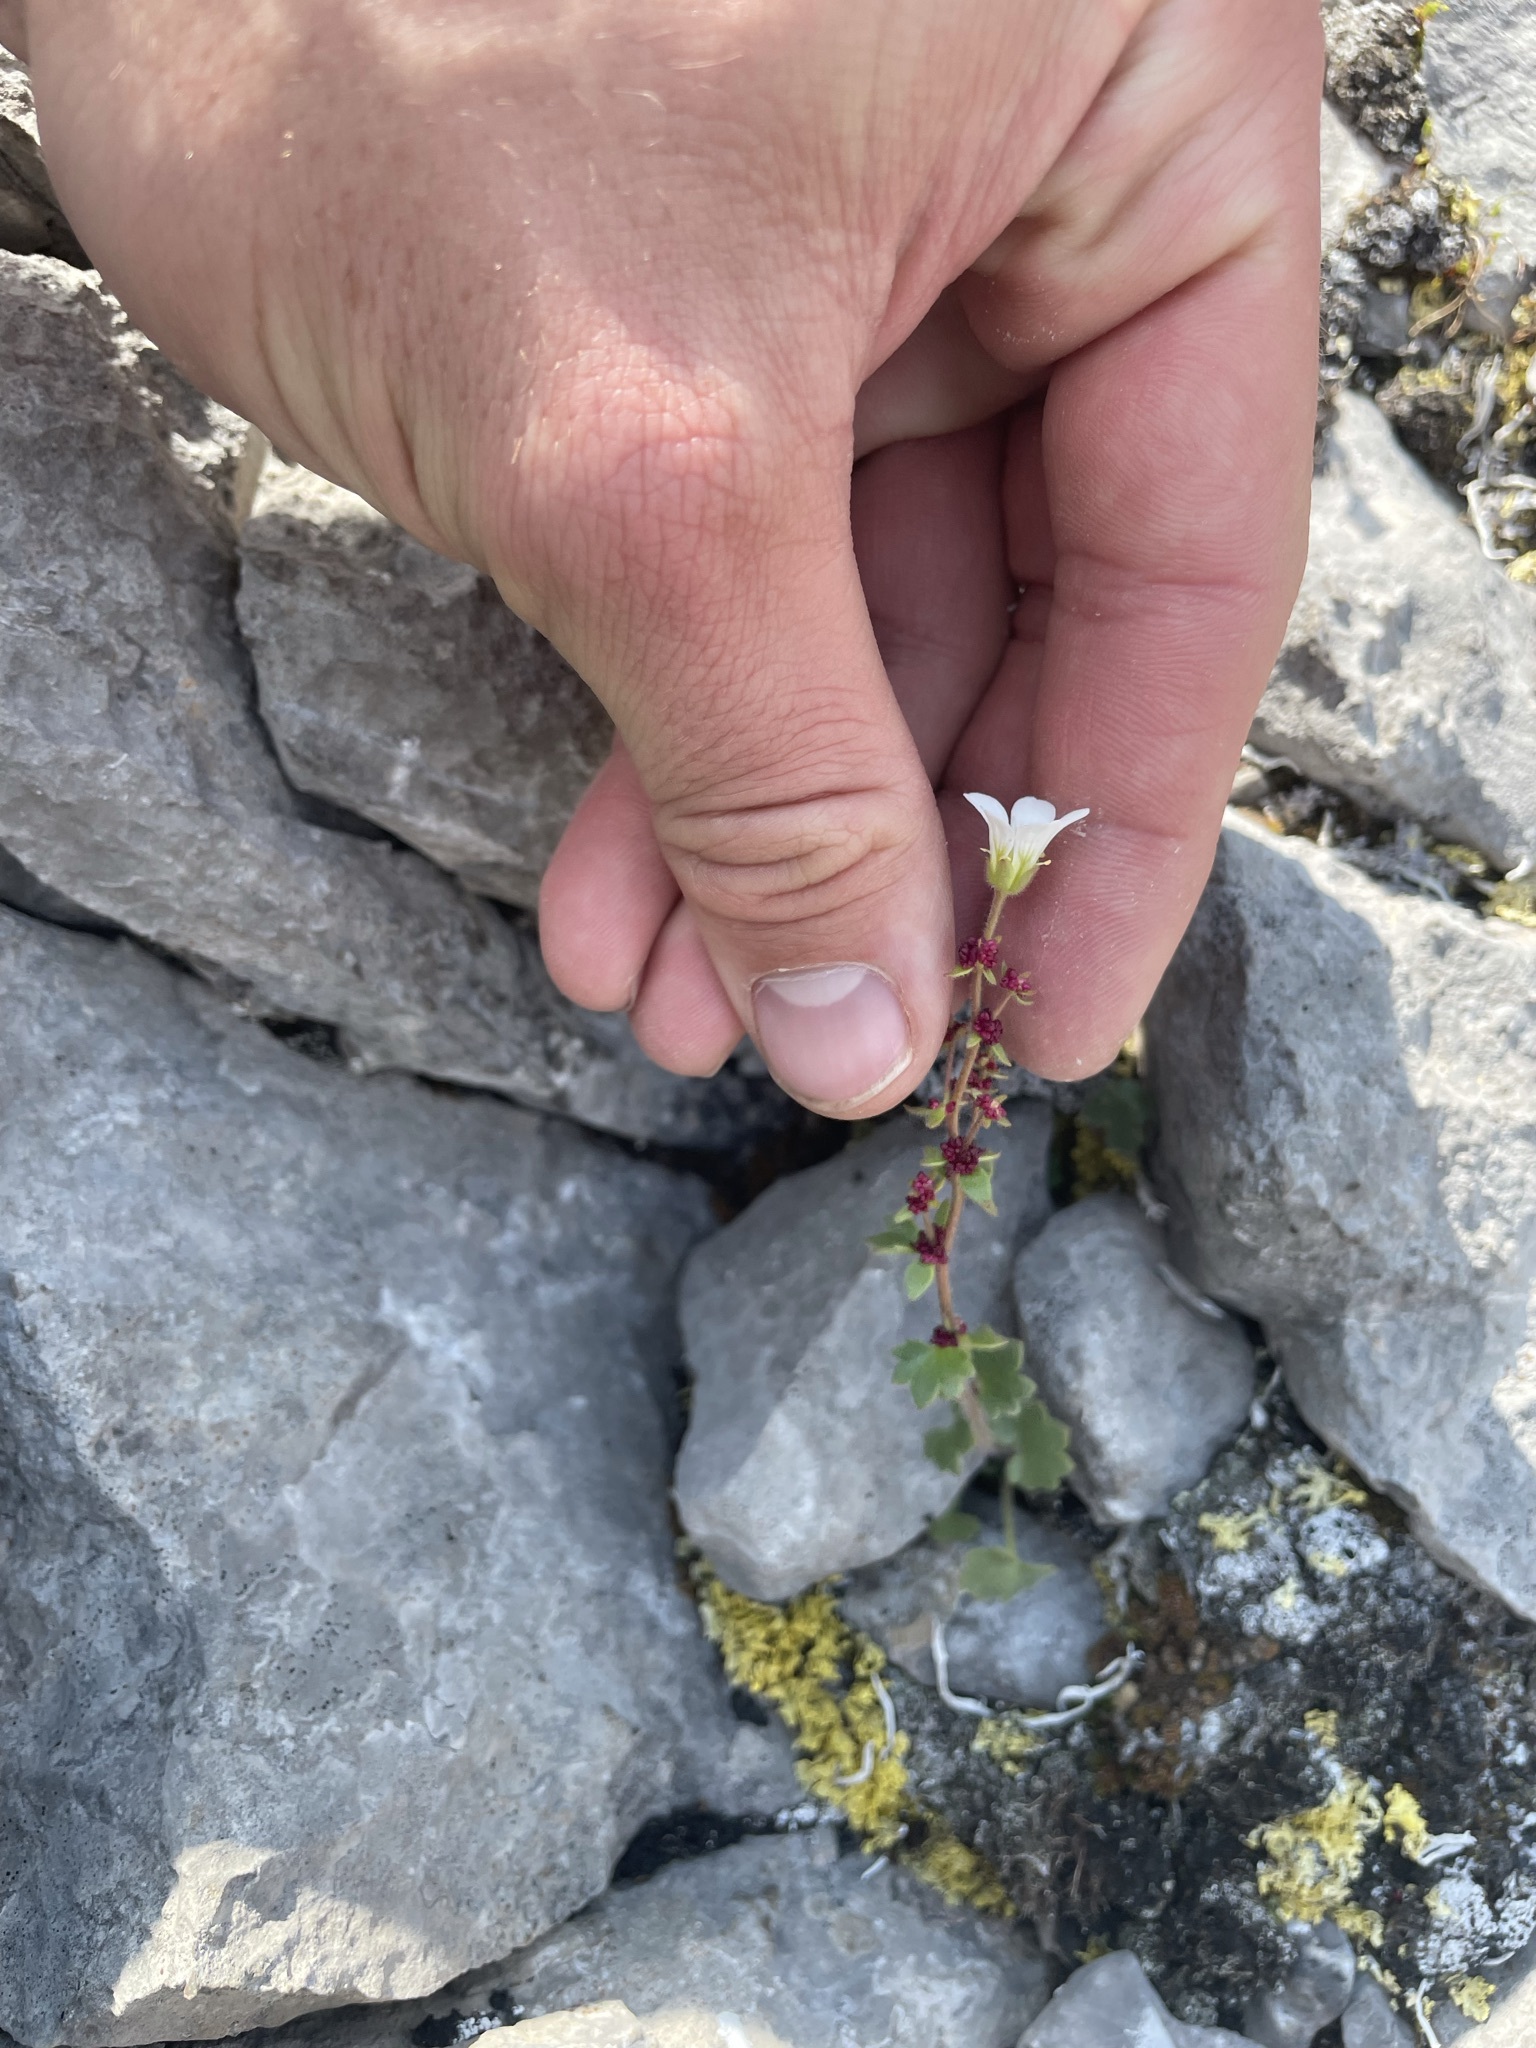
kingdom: Plantae
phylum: Tracheophyta
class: Magnoliopsida
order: Saxifragales
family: Saxifragaceae
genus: Saxifraga
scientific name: Saxifraga cernua
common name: Drooping saxifrage
